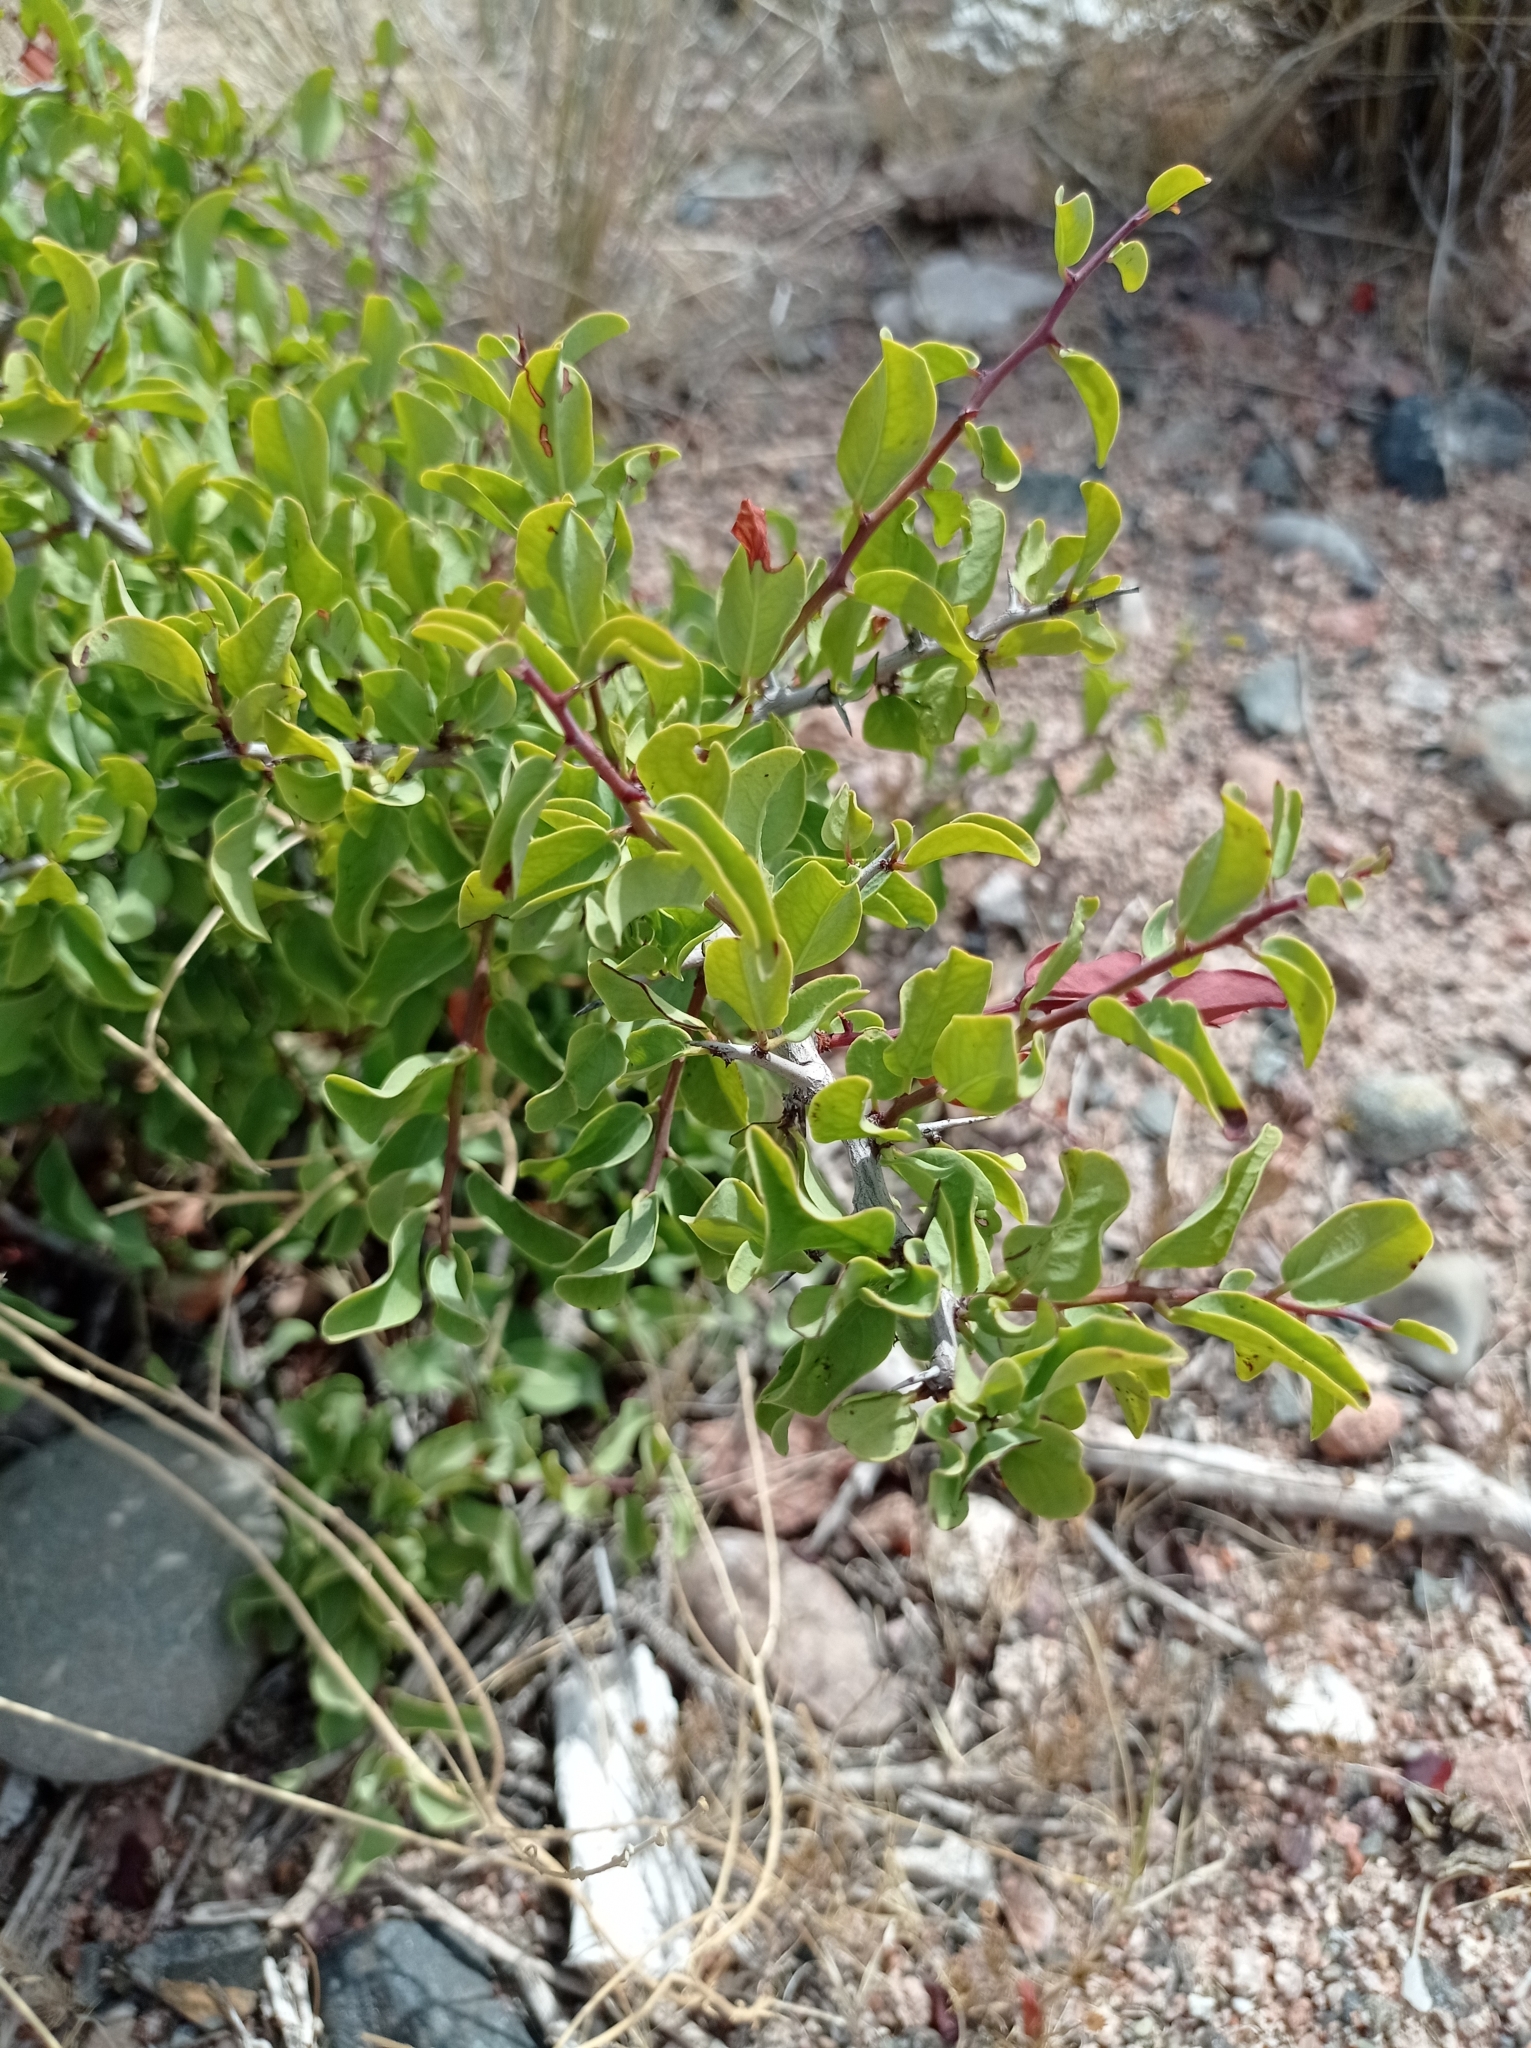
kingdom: Plantae
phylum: Tracheophyta
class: Magnoliopsida
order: Santalales
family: Ximeniaceae
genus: Ximenia
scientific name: Ximenia americana
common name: Tallowwood
